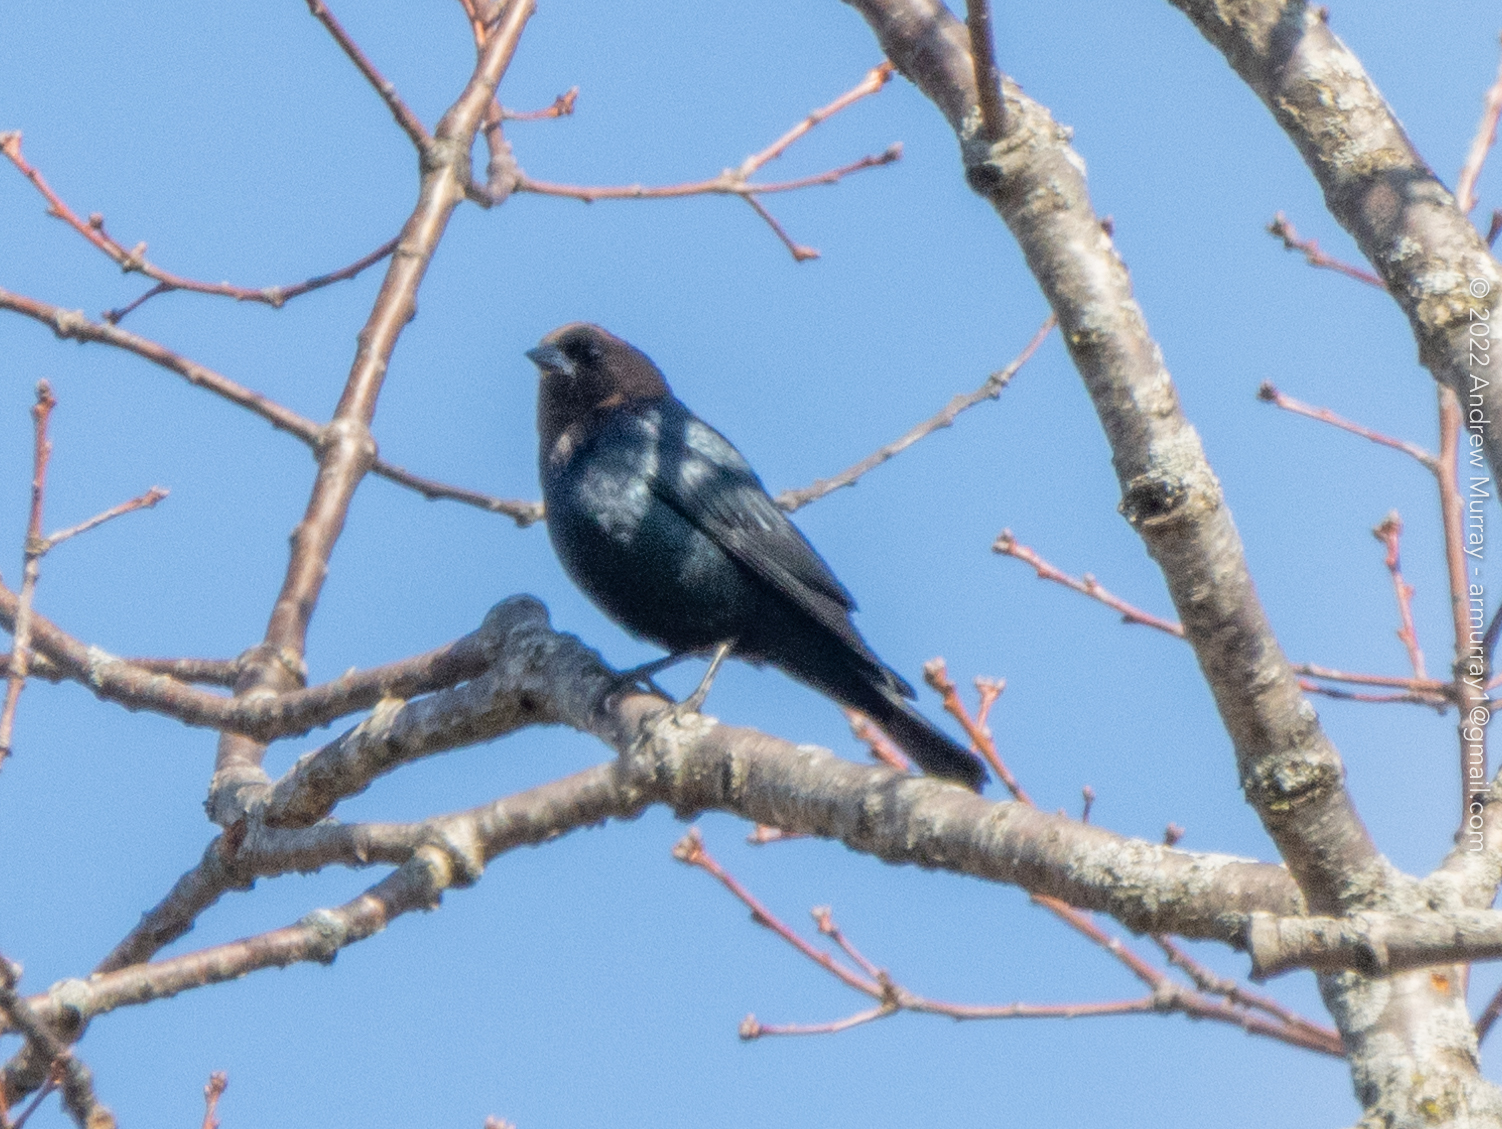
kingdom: Animalia
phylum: Chordata
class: Aves
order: Passeriformes
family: Icteridae
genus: Molothrus
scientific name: Molothrus ater
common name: Brown-headed cowbird
